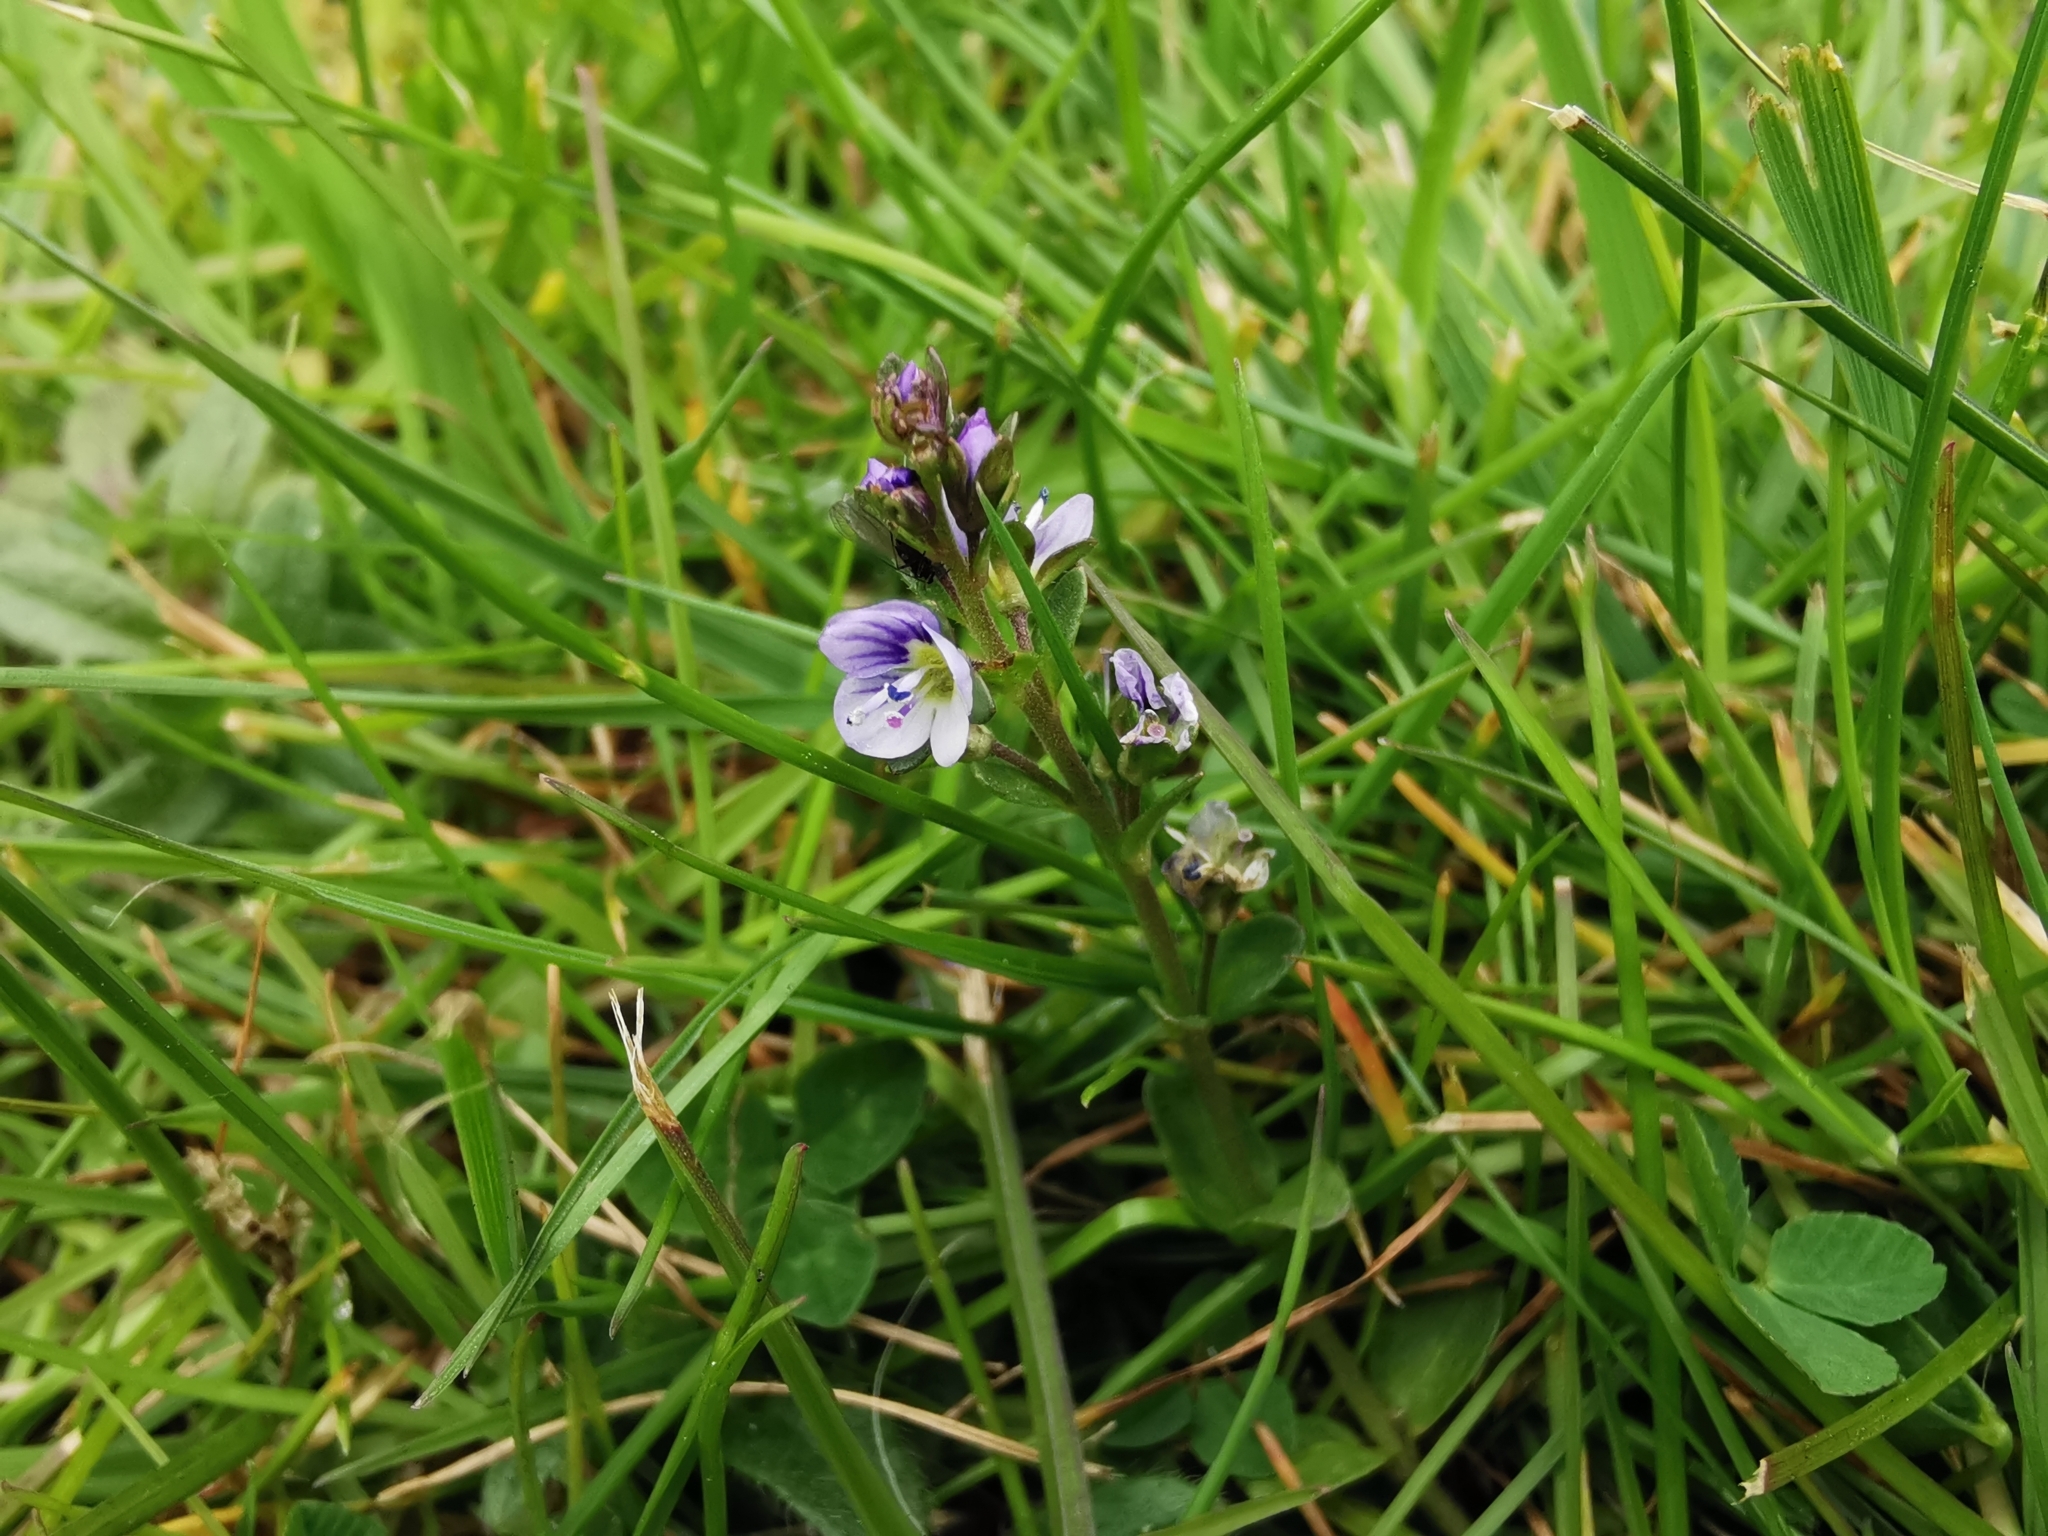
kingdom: Plantae
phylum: Tracheophyta
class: Magnoliopsida
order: Lamiales
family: Plantaginaceae
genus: Veronica
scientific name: Veronica serpyllifolia
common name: Thyme-leaved speedwell
